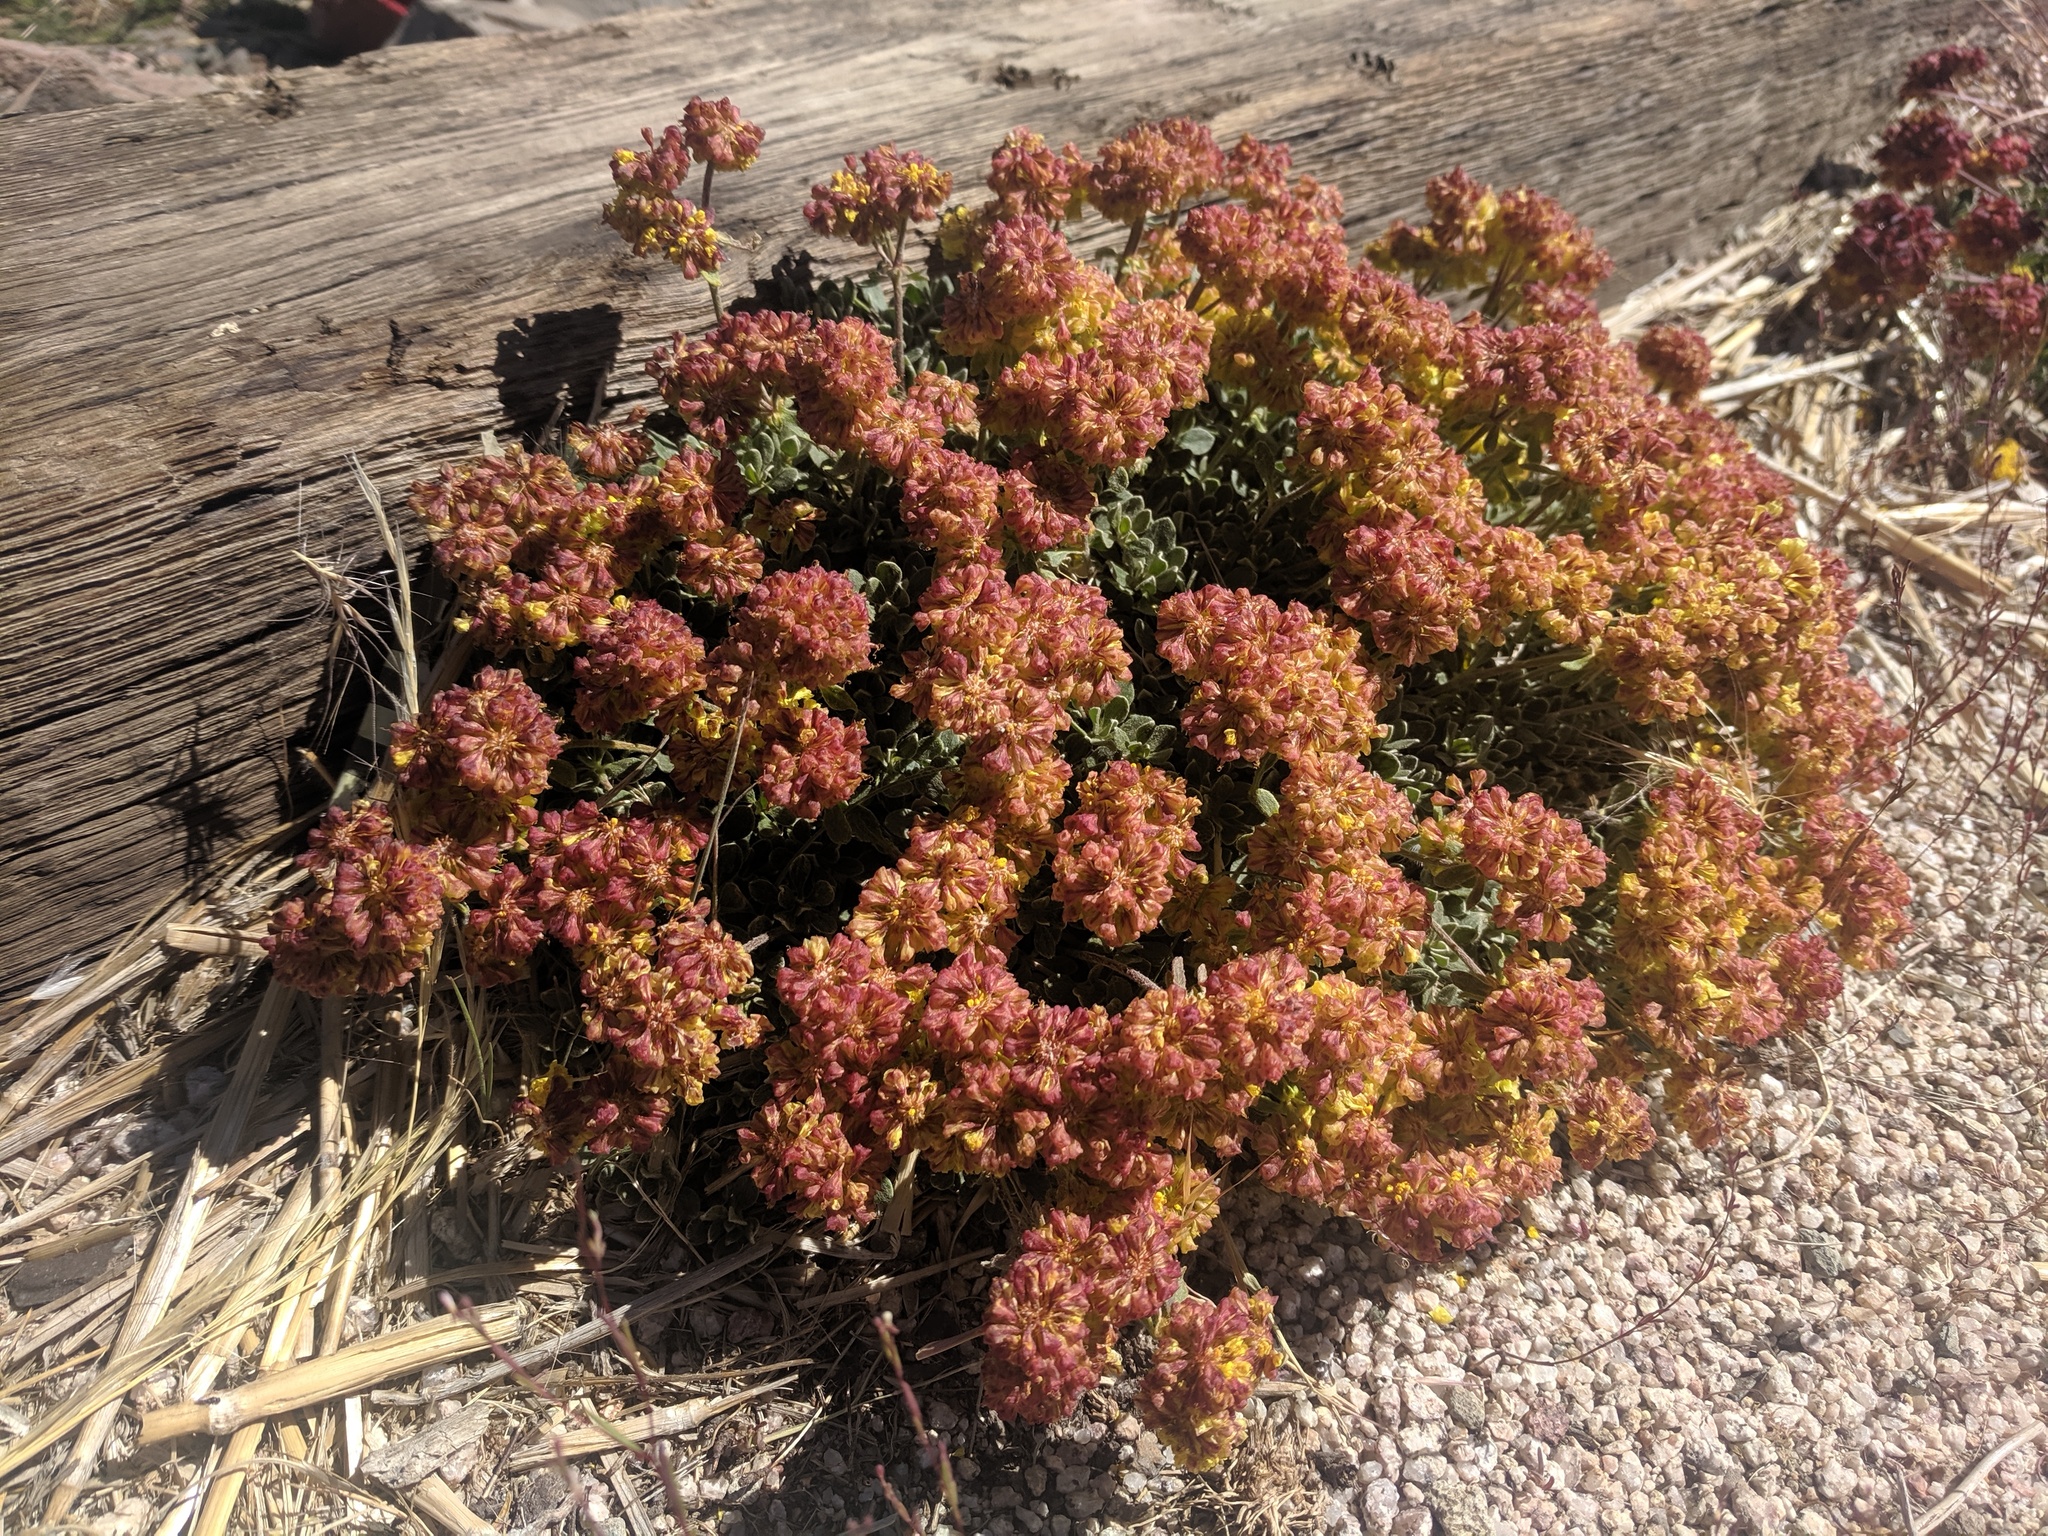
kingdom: Plantae
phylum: Tracheophyta
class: Magnoliopsida
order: Caryophyllales
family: Polygonaceae
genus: Eriogonum
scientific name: Eriogonum umbellatum
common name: Sulfur-buckwheat
